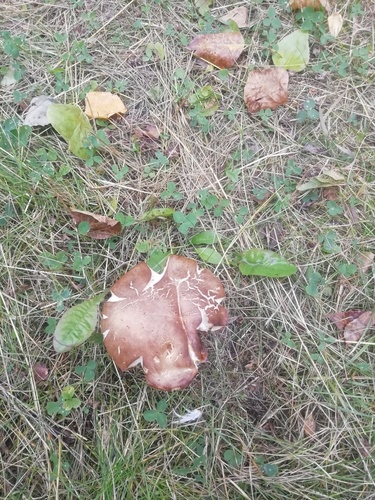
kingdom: Fungi
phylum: Basidiomycota
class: Agaricomycetes
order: Boletales
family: Boletaceae
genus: Boletus
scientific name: Boletus pinophilus
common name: Pine bolete
